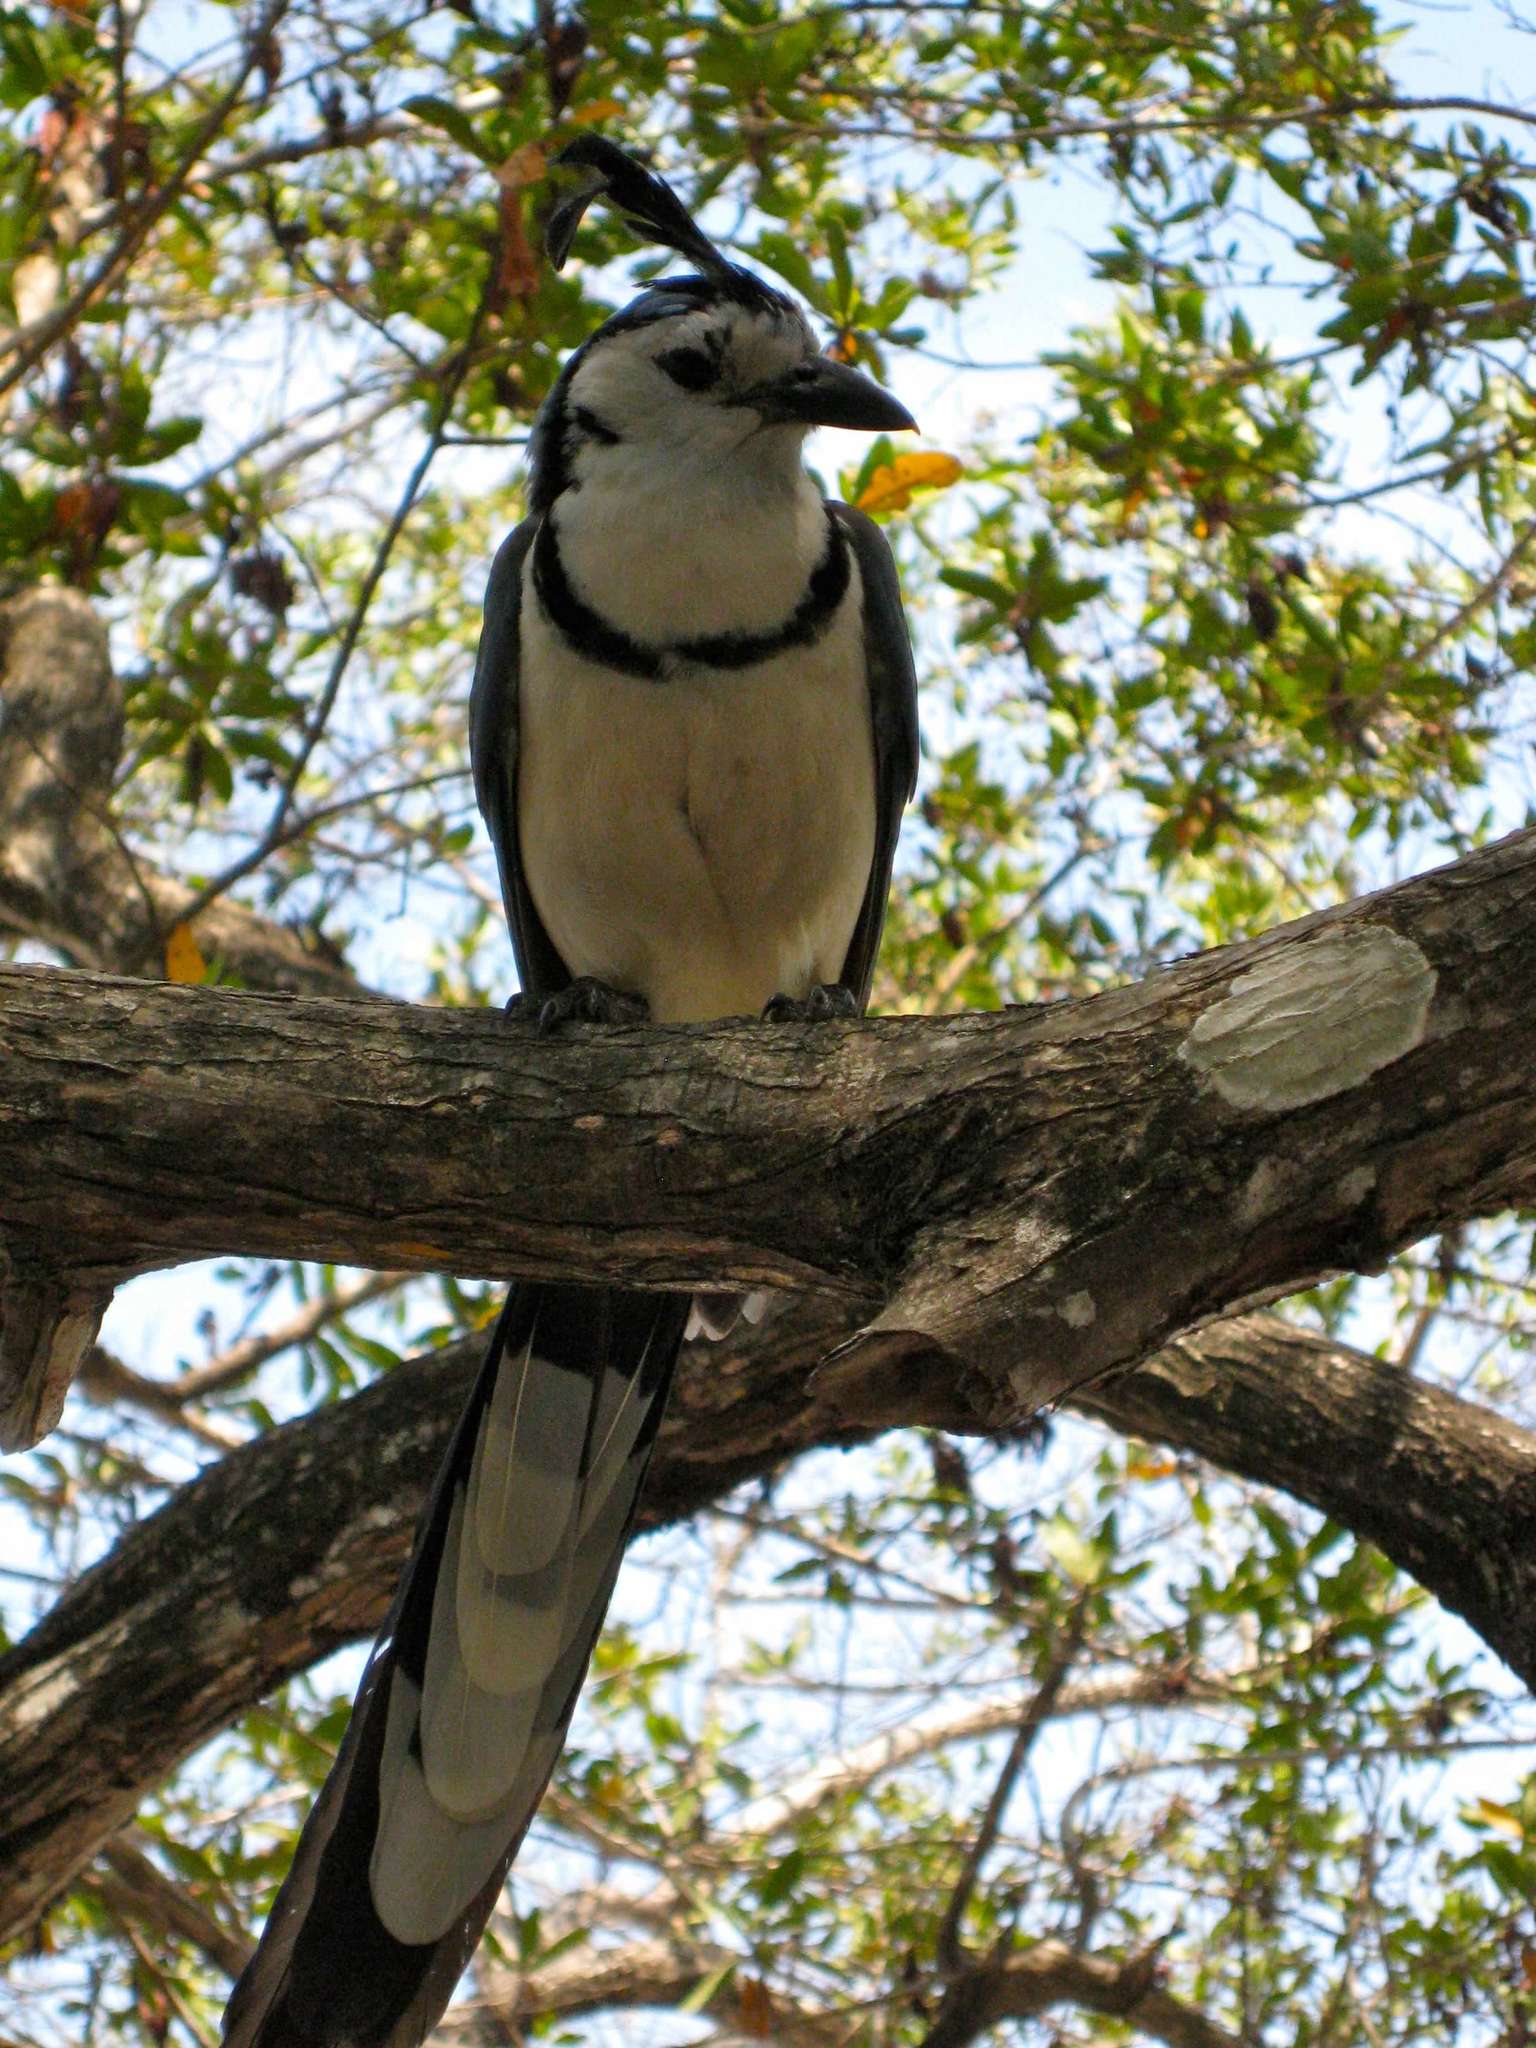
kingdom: Animalia
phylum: Chordata
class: Aves
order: Passeriformes
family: Corvidae
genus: Calocitta
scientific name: Calocitta formosa
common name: White-throated magpie-jay
